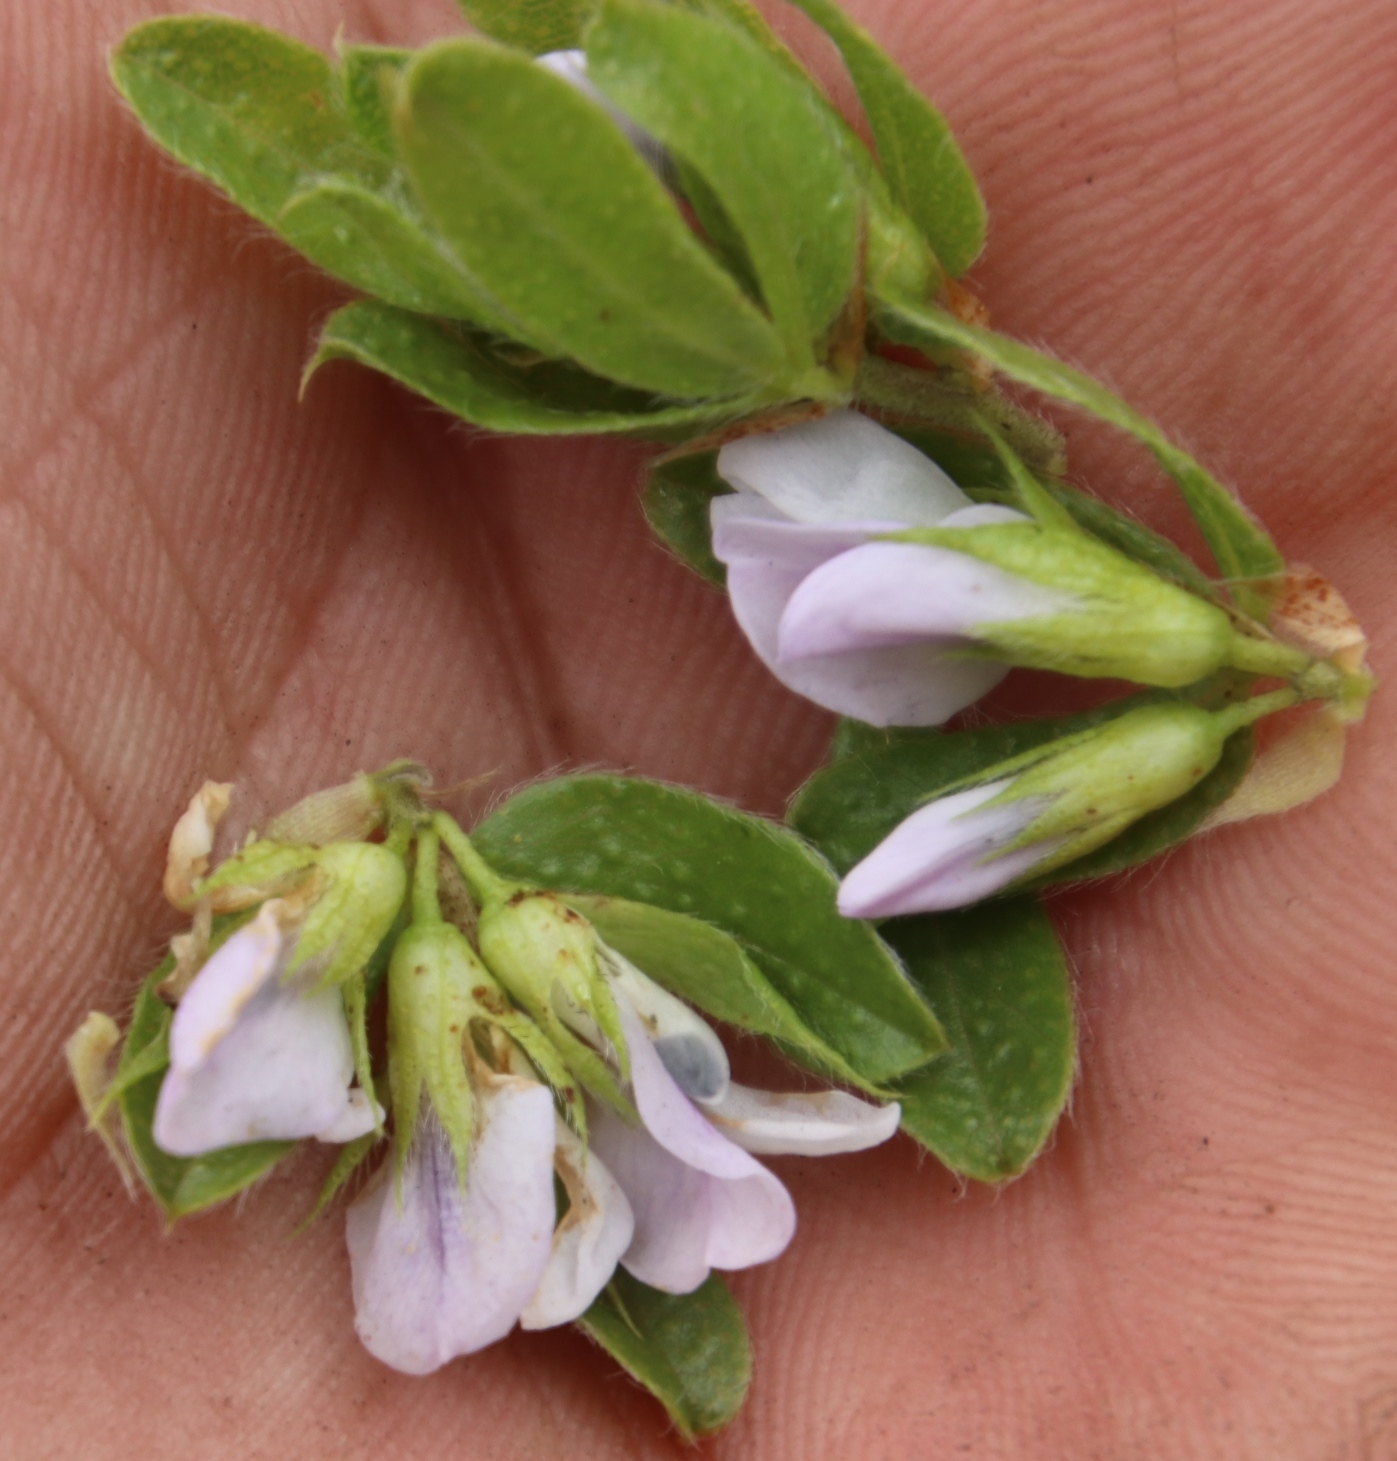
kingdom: Plantae
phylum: Tracheophyta
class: Magnoliopsida
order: Fabales
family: Fabaceae
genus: Psoralea
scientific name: Psoralea obliqua
